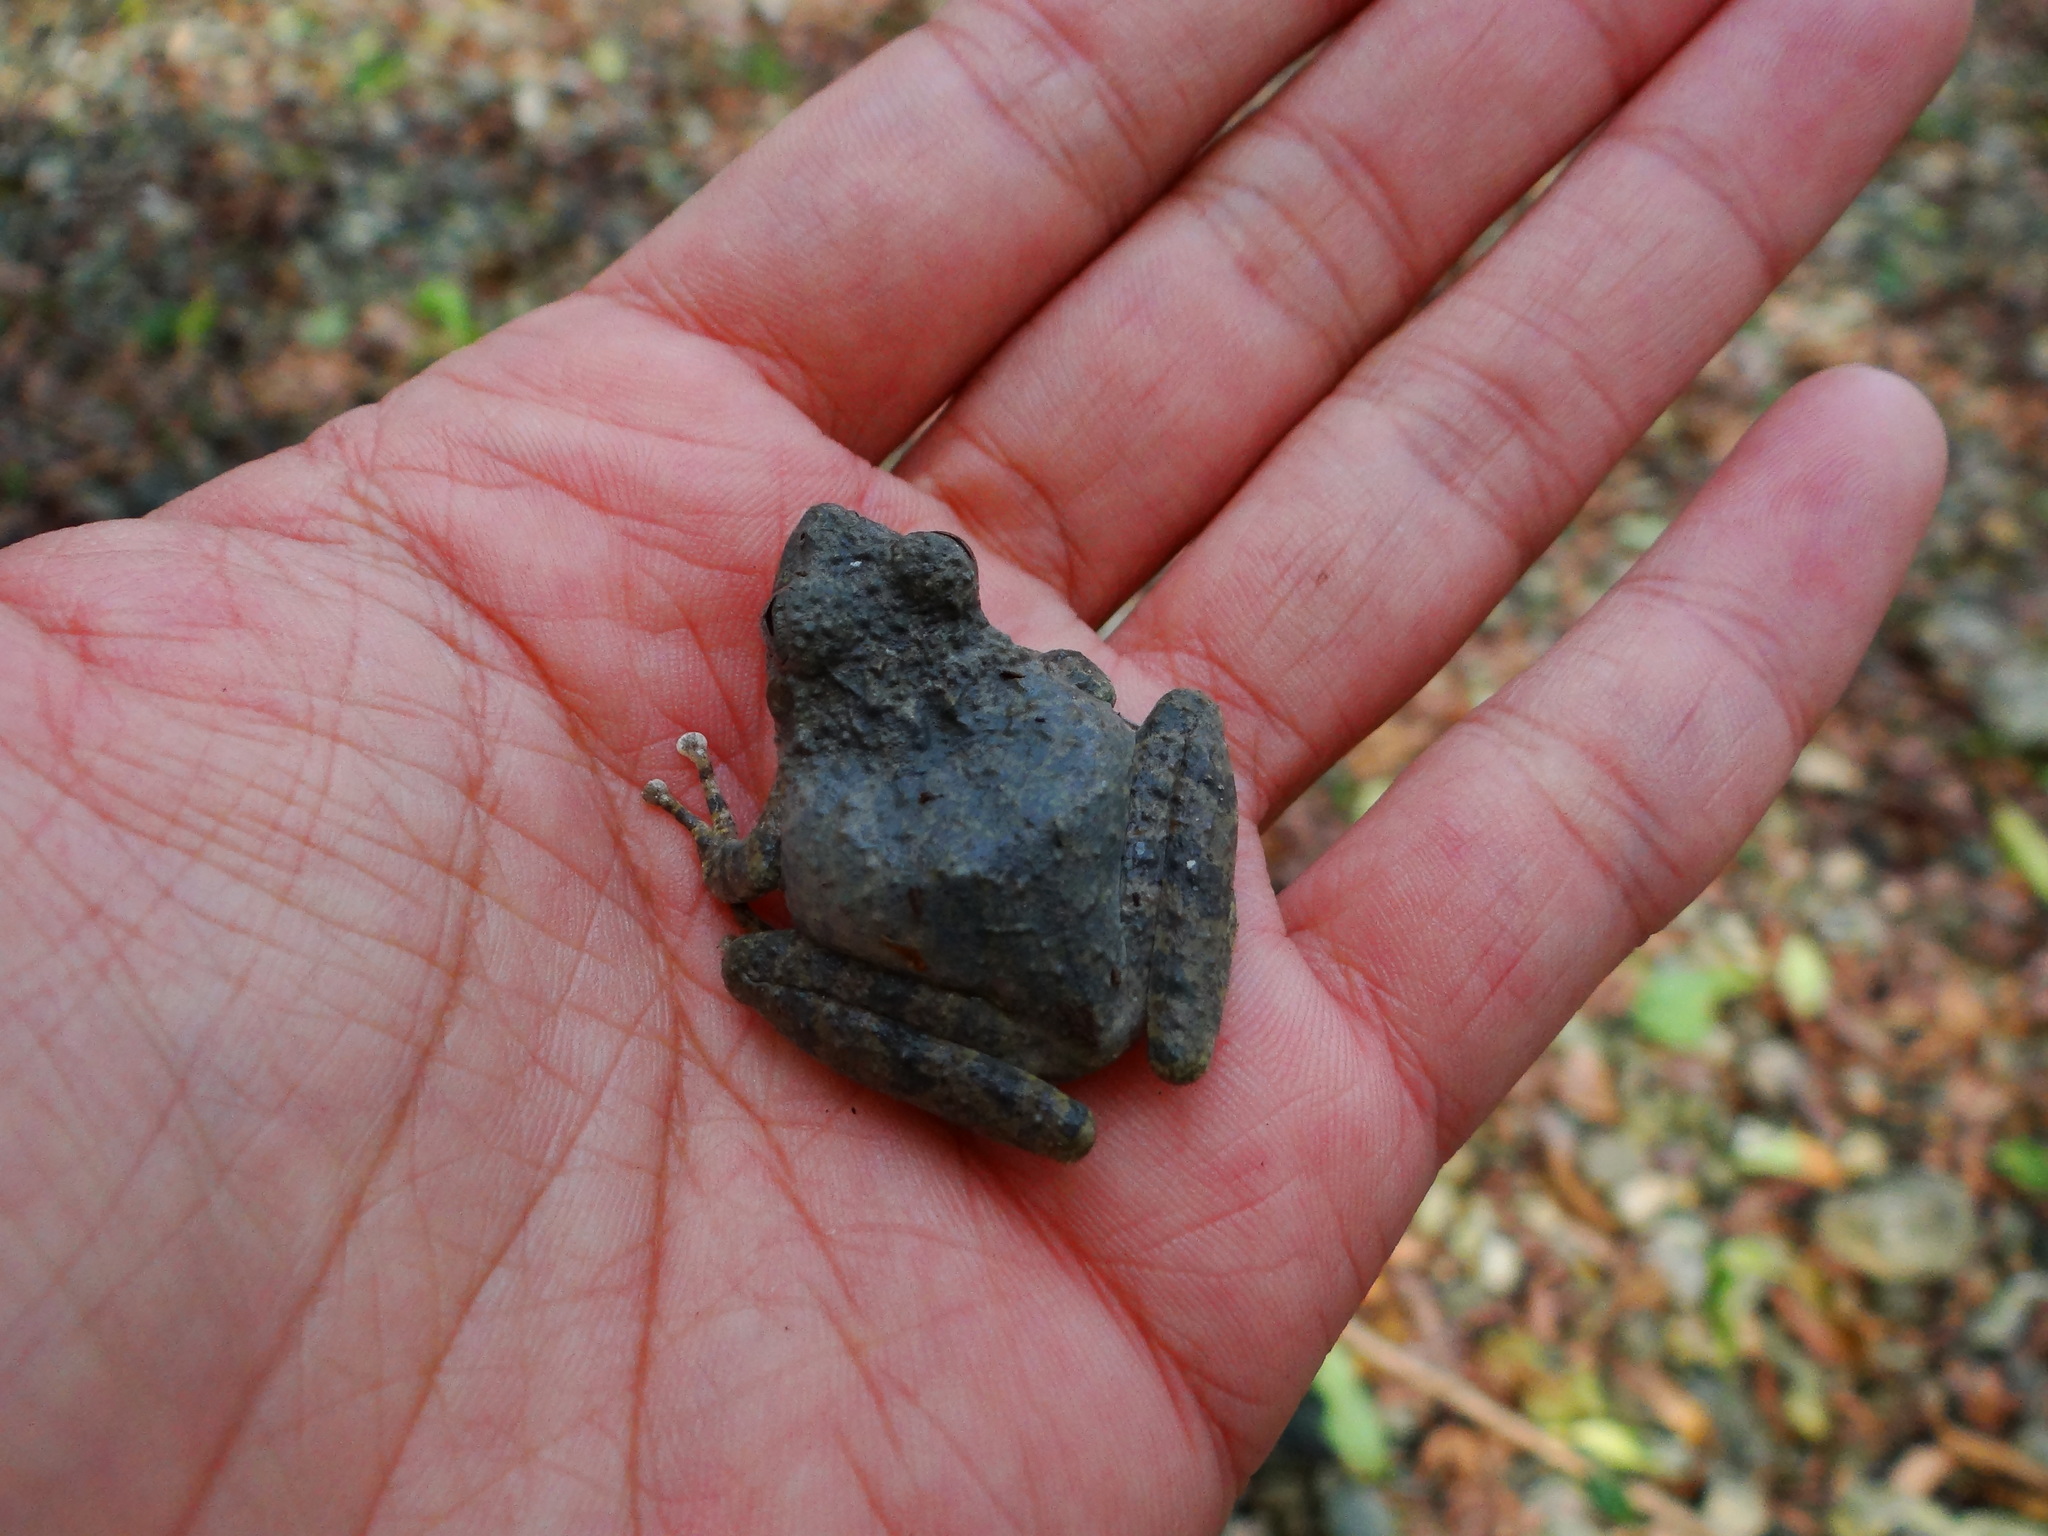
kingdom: Animalia
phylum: Chordata
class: Amphibia
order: Anura
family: Rhacophoridae
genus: Buergeria
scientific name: Buergeria otai
